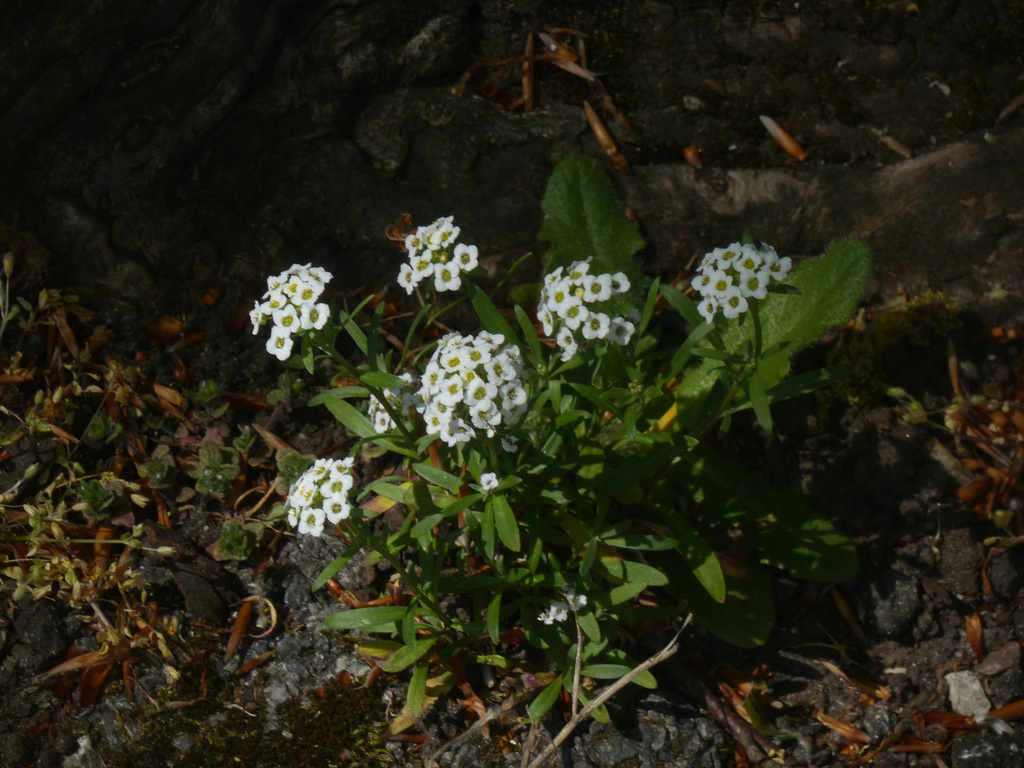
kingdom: Plantae
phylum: Tracheophyta
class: Magnoliopsida
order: Brassicales
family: Brassicaceae
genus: Lobularia
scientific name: Lobularia maritima
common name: Sweet alison
